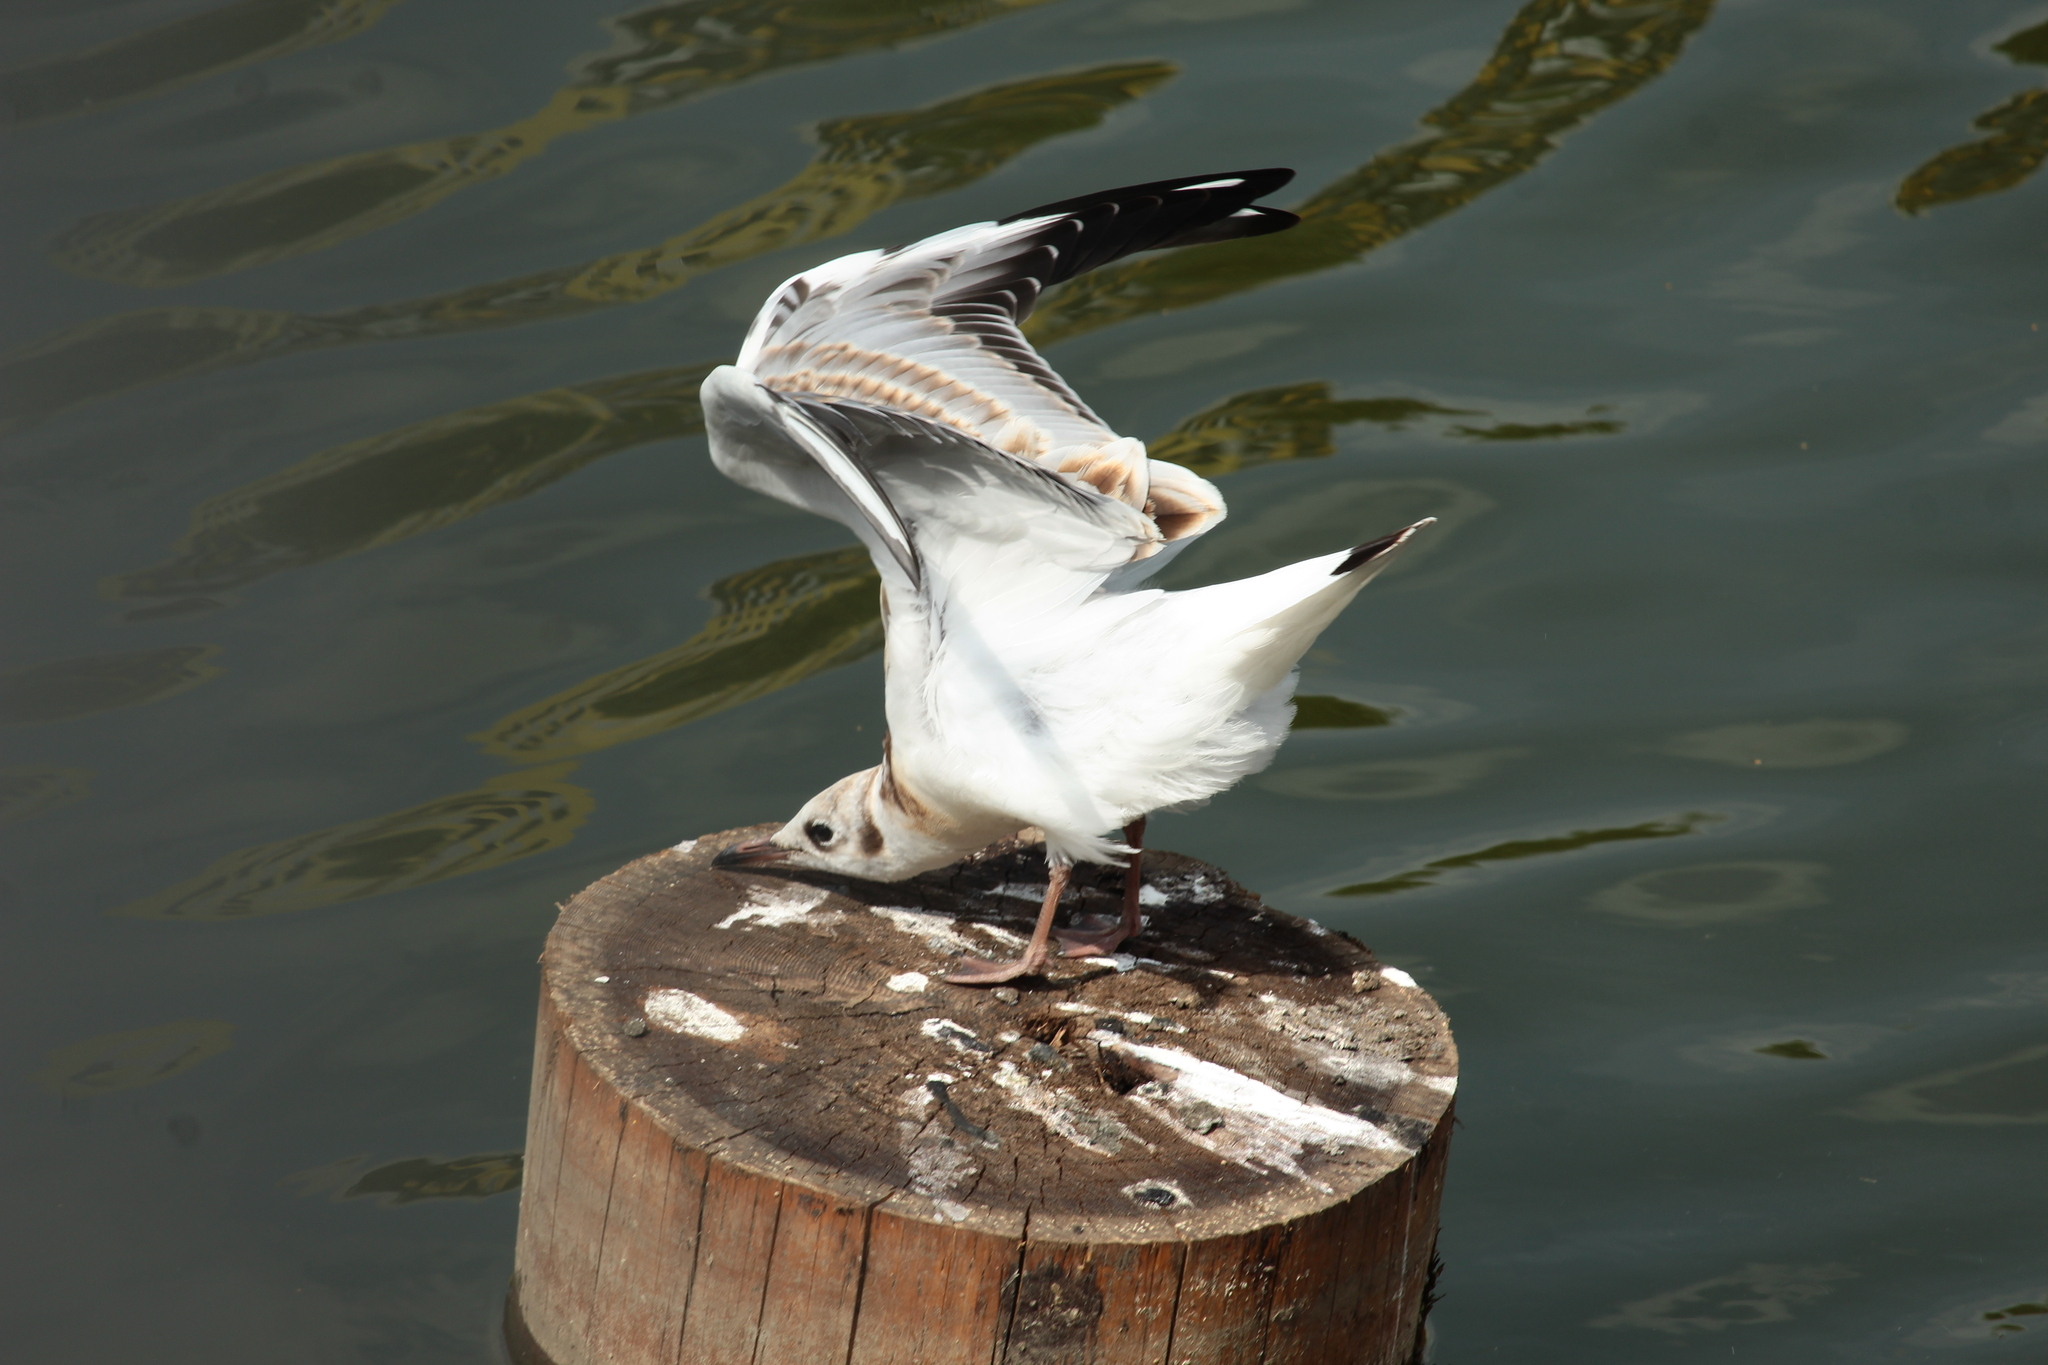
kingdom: Animalia
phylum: Chordata
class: Aves
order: Charadriiformes
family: Laridae
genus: Chroicocephalus
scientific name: Chroicocephalus ridibundus
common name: Black-headed gull
